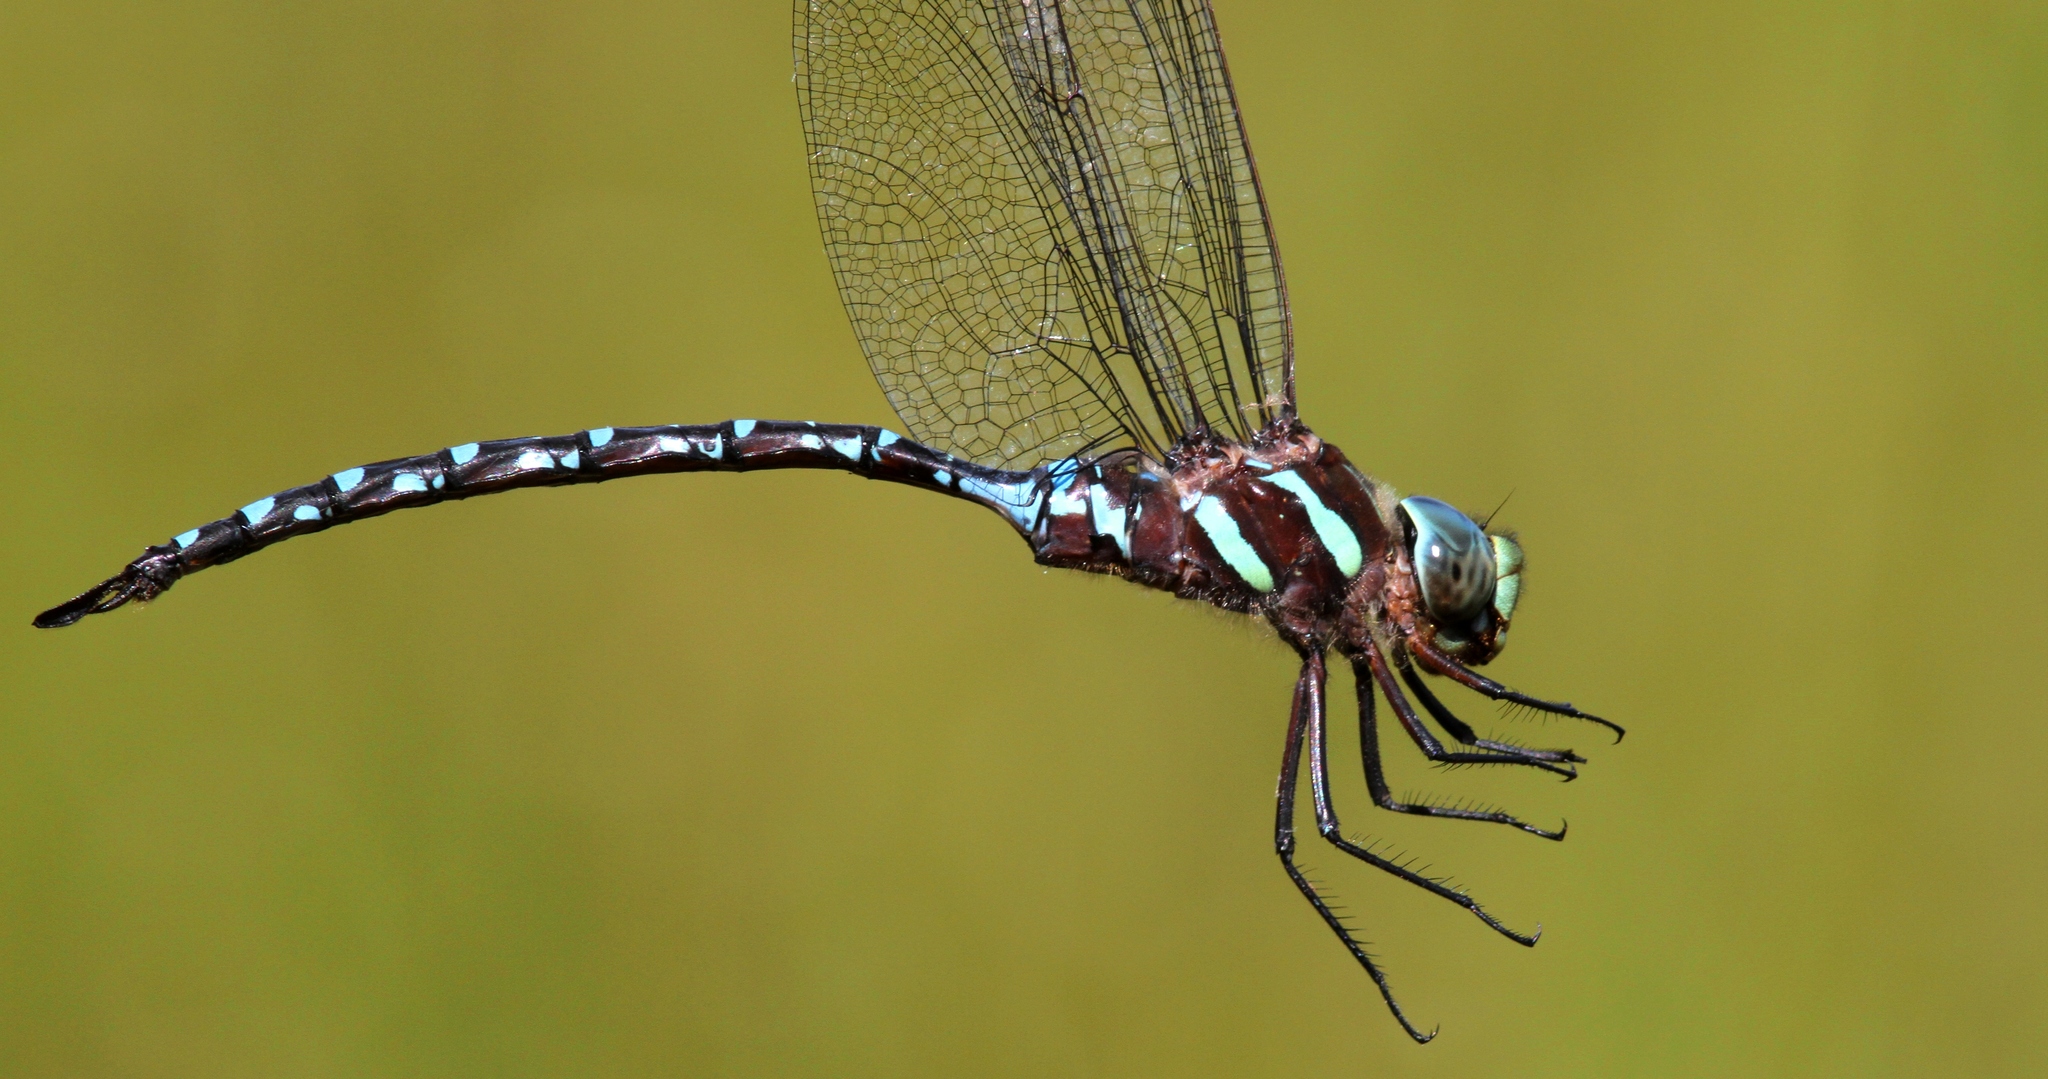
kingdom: Animalia
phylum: Arthropoda
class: Insecta
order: Odonata
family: Aeshnidae
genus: Aeshna
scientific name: Aeshna tuberculifera
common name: Aeschne à tubercules
